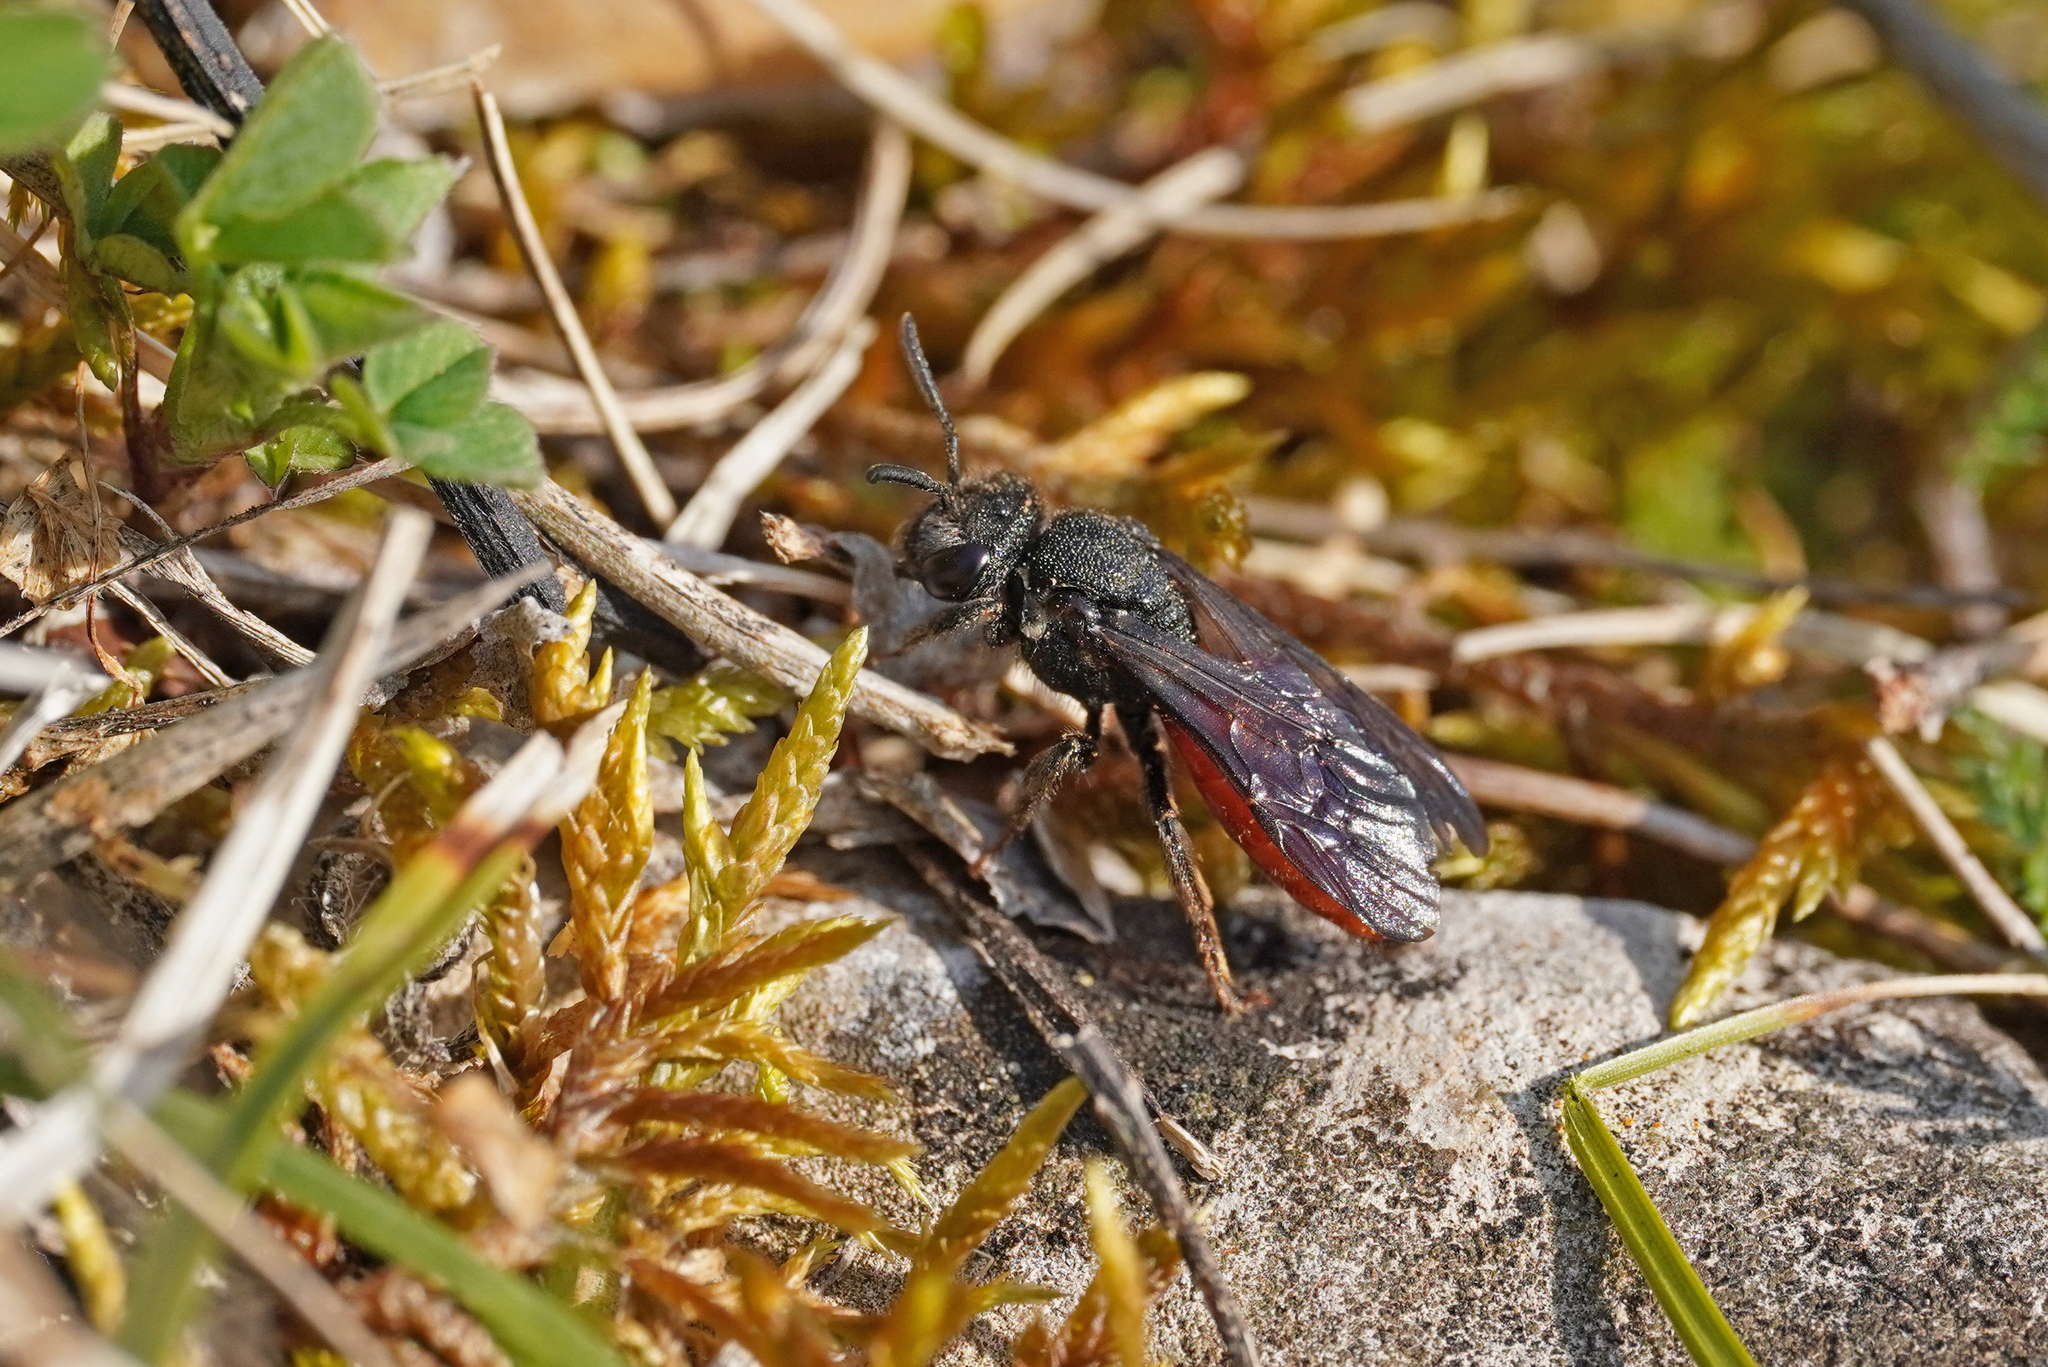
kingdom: Animalia
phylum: Arthropoda
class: Insecta
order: Hymenoptera
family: Halictidae
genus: Sphecodes
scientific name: Sphecodes albilabris
